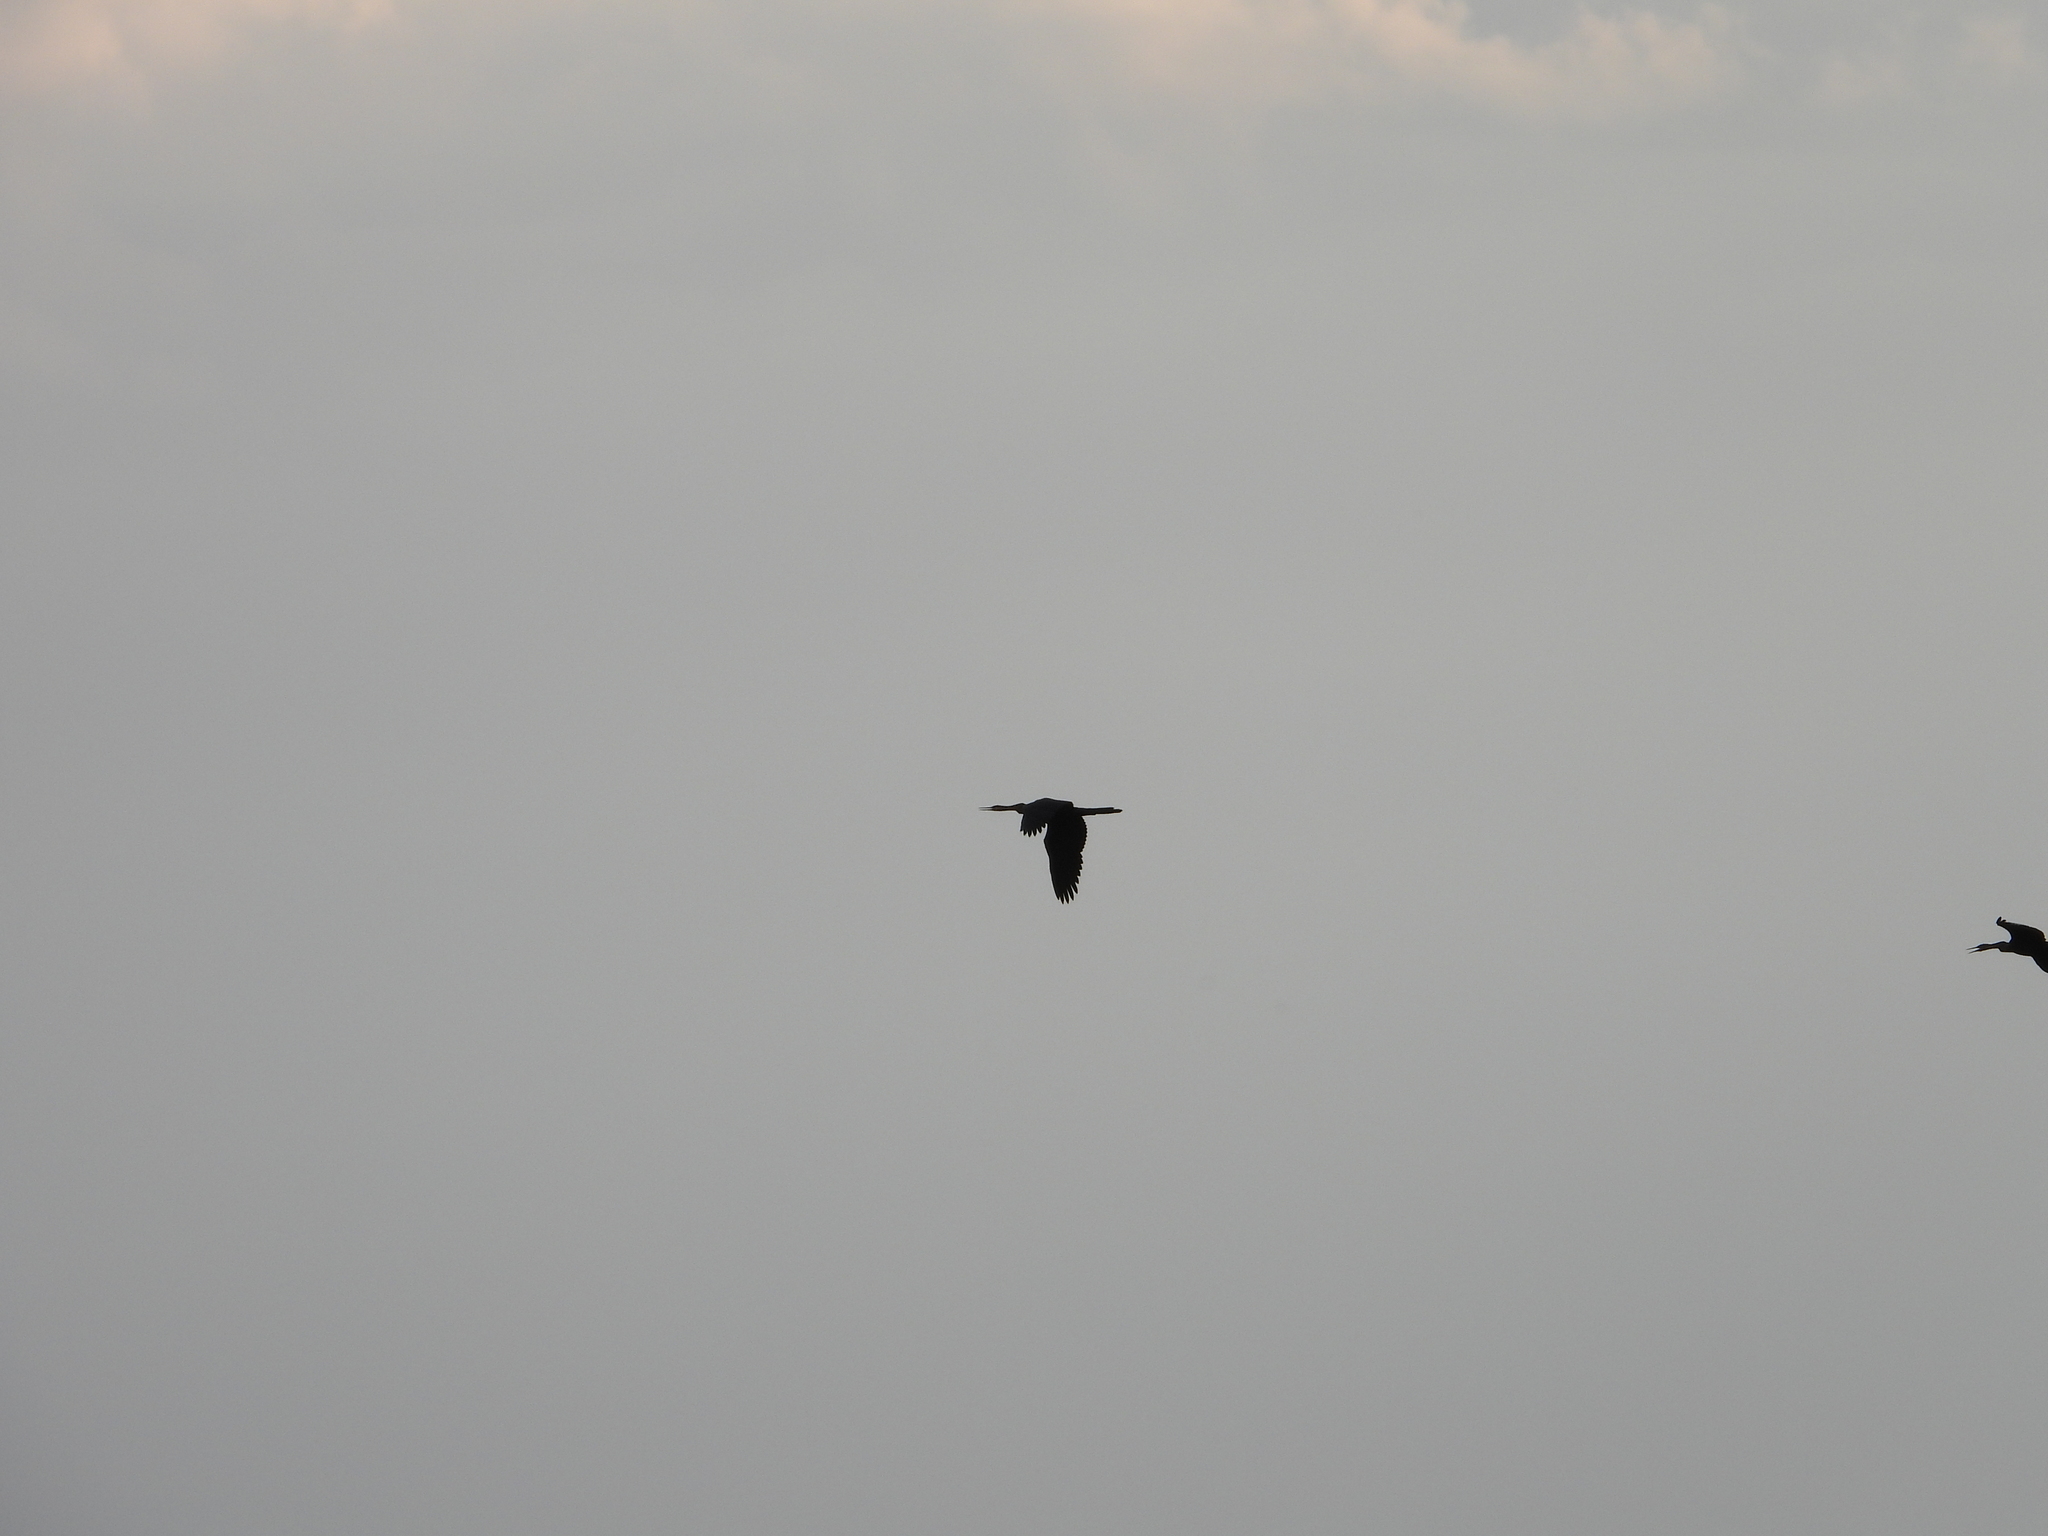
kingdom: Animalia
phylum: Chordata
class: Aves
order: Suliformes
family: Anhingidae
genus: Anhinga
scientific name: Anhinga rufa
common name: African darter
